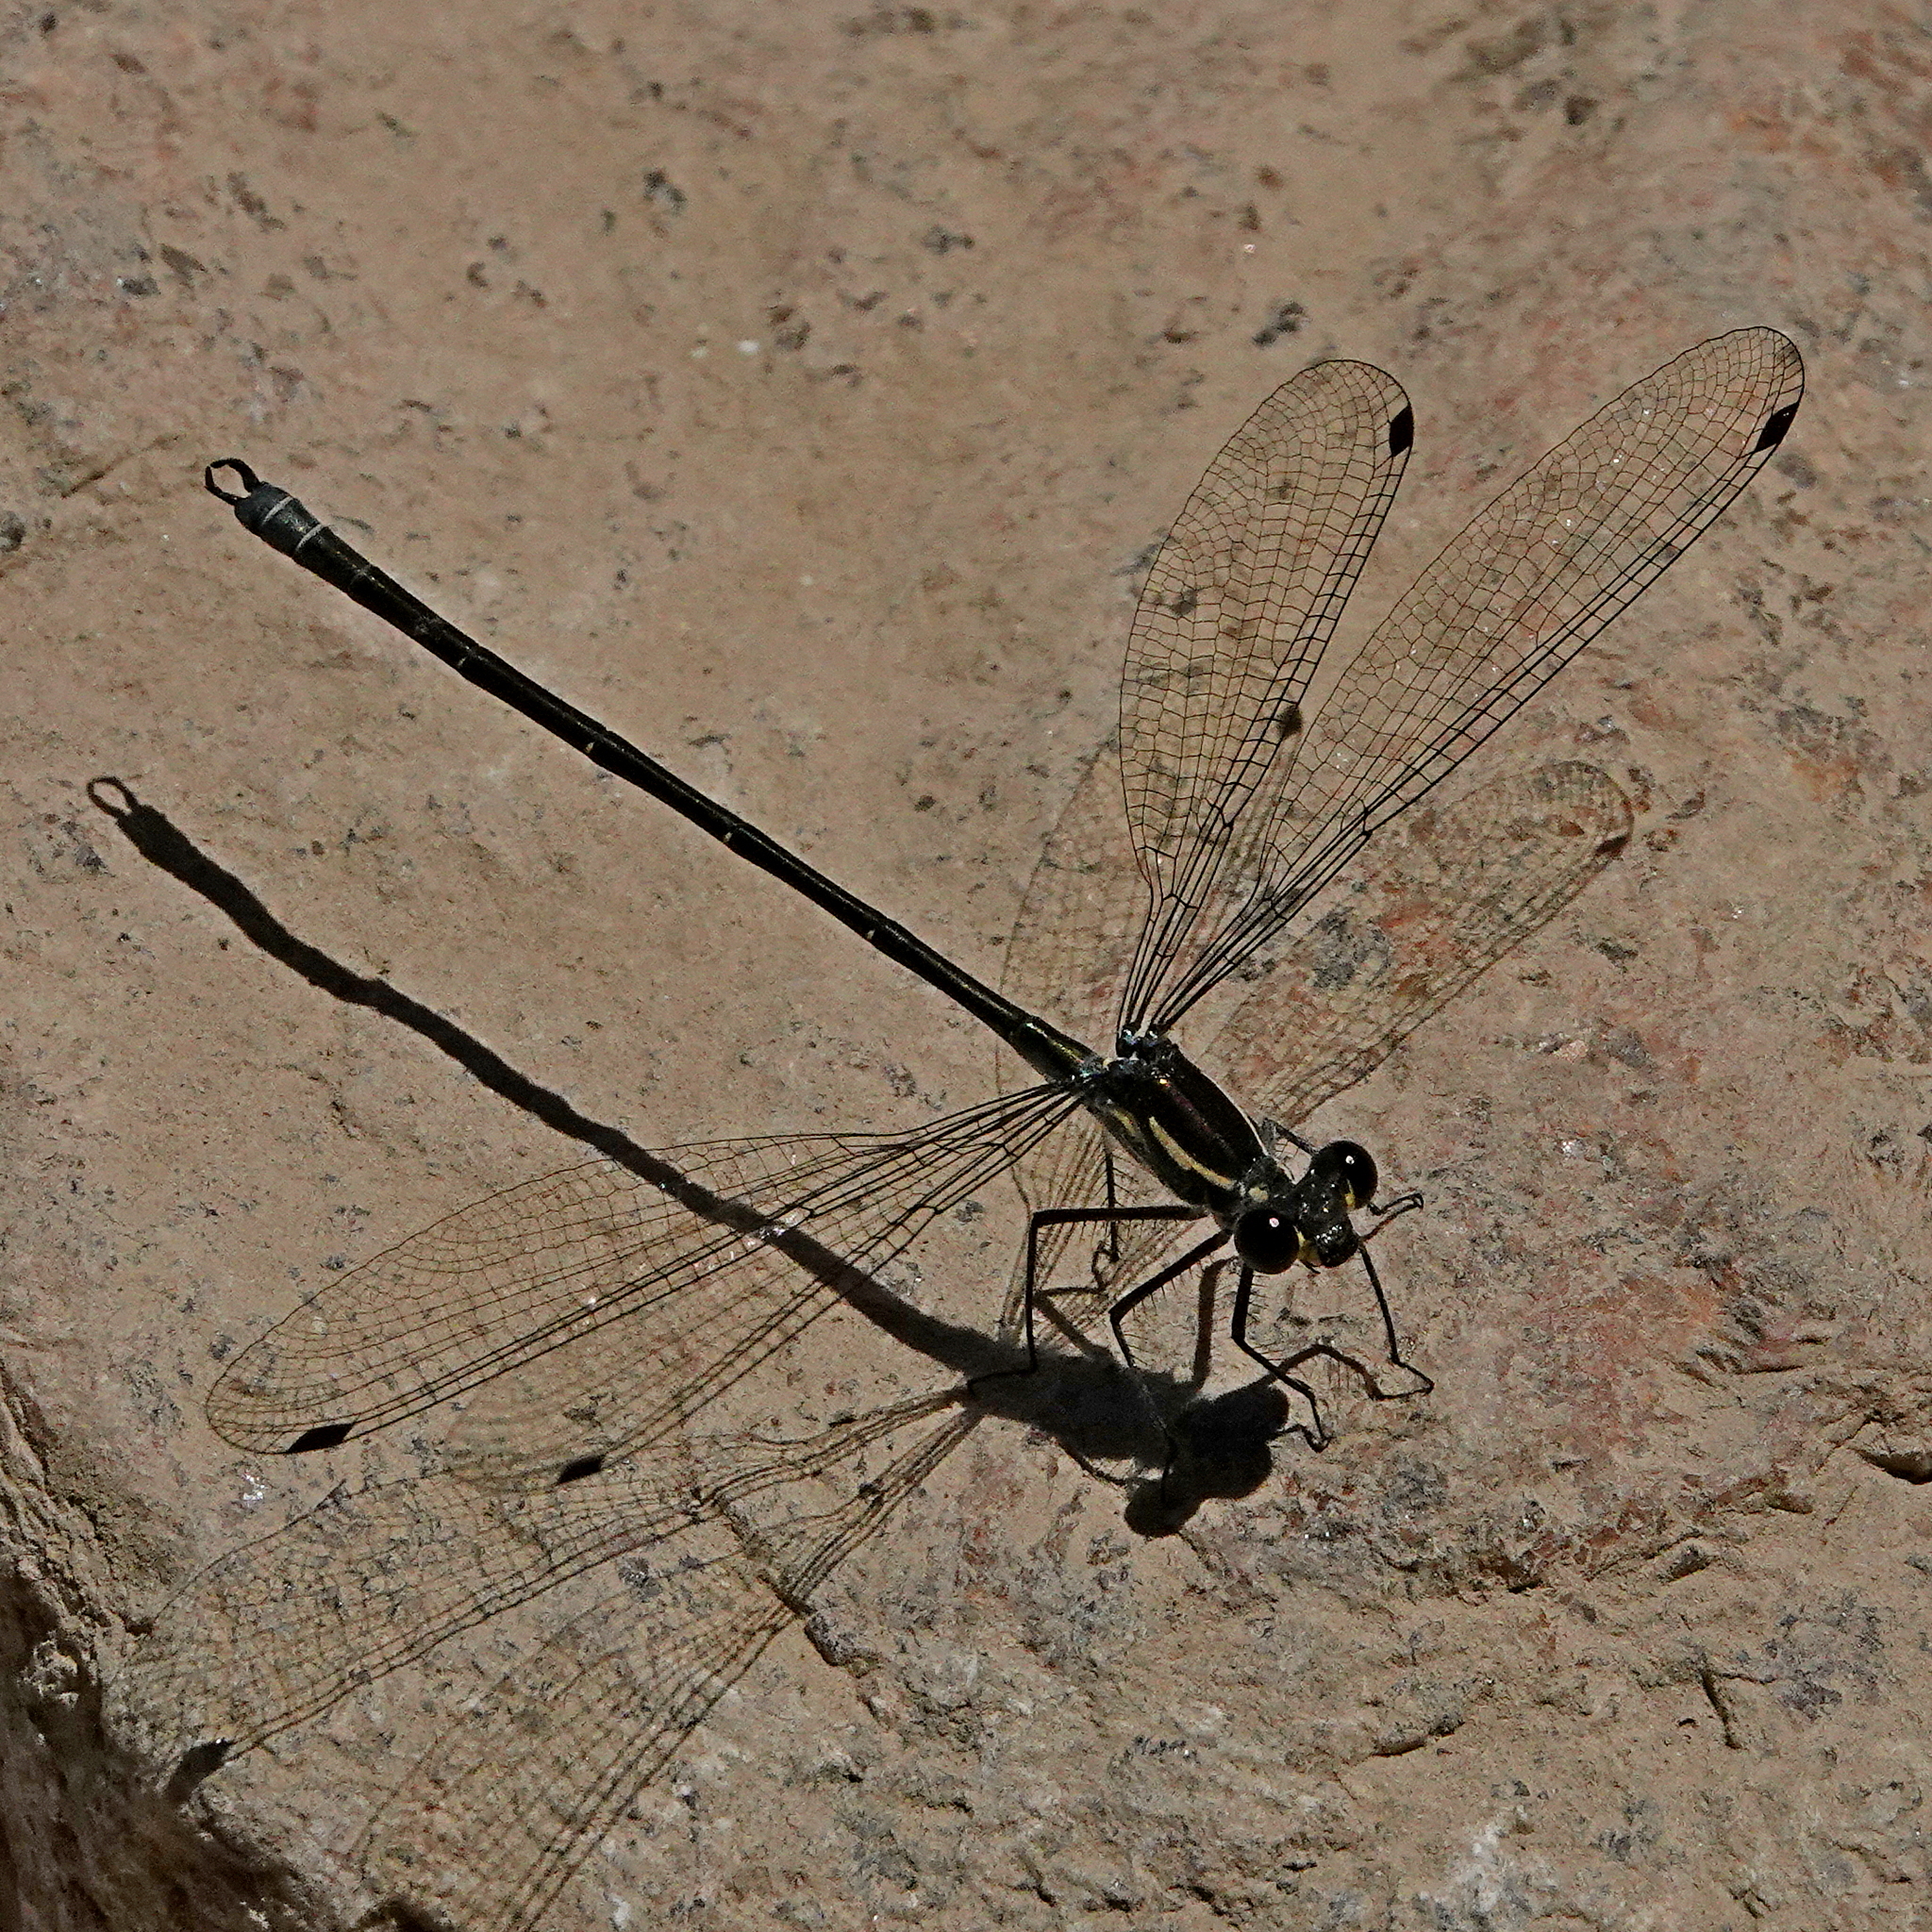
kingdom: Animalia
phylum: Arthropoda
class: Insecta
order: Odonata
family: Argiolestidae
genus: Austroargiolestes
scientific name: Austroargiolestes icteromelas
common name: Common flatwing
